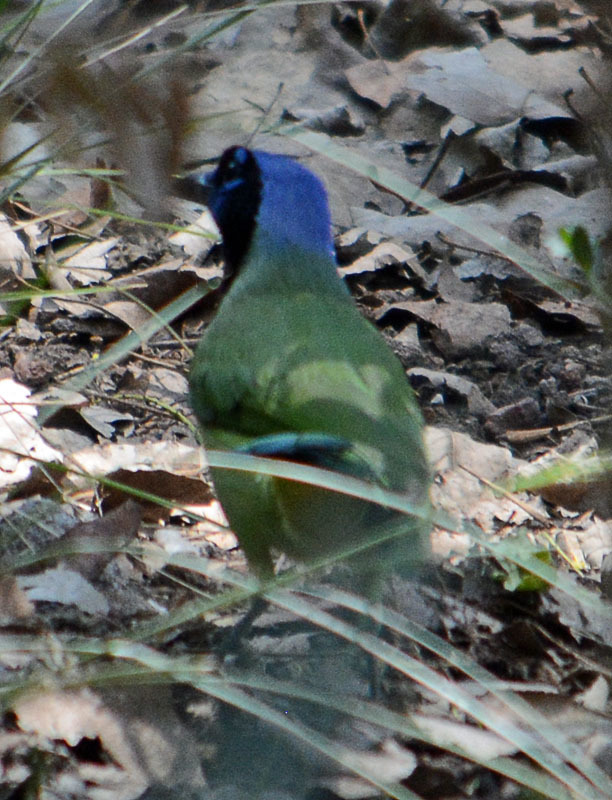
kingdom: Animalia
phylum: Chordata
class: Aves
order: Passeriformes
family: Corvidae
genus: Cyanocorax
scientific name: Cyanocorax yncas
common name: Green jay
